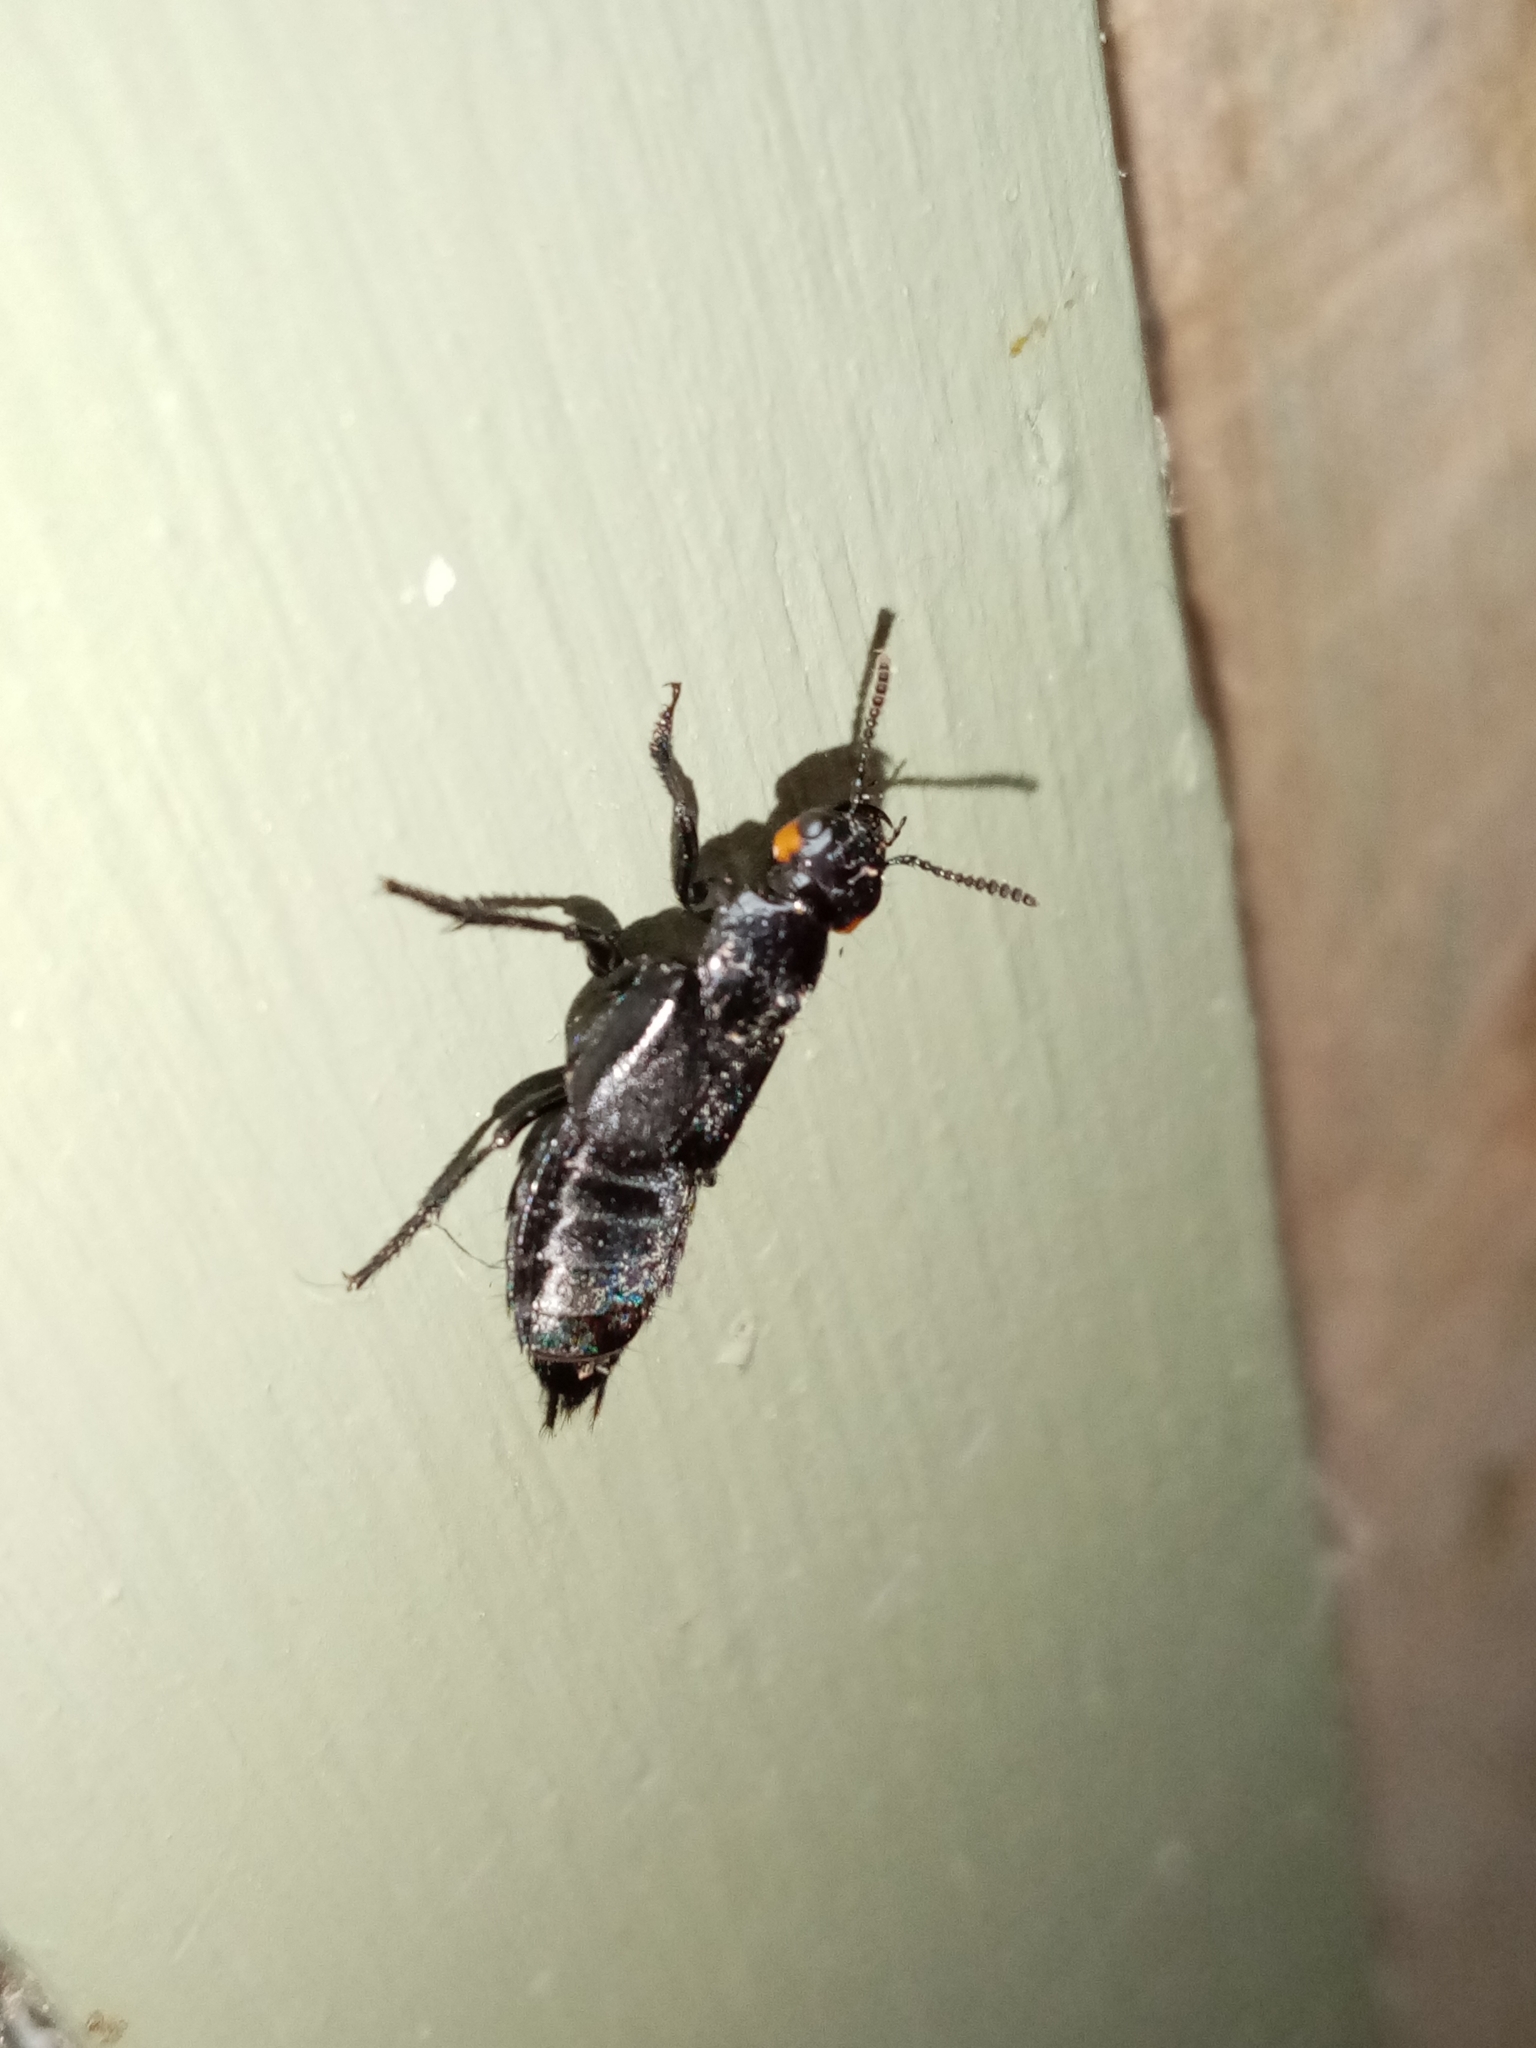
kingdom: Animalia
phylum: Arthropoda
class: Insecta
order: Coleoptera
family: Staphylinidae
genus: Creophilus
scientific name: Creophilus oculatus
